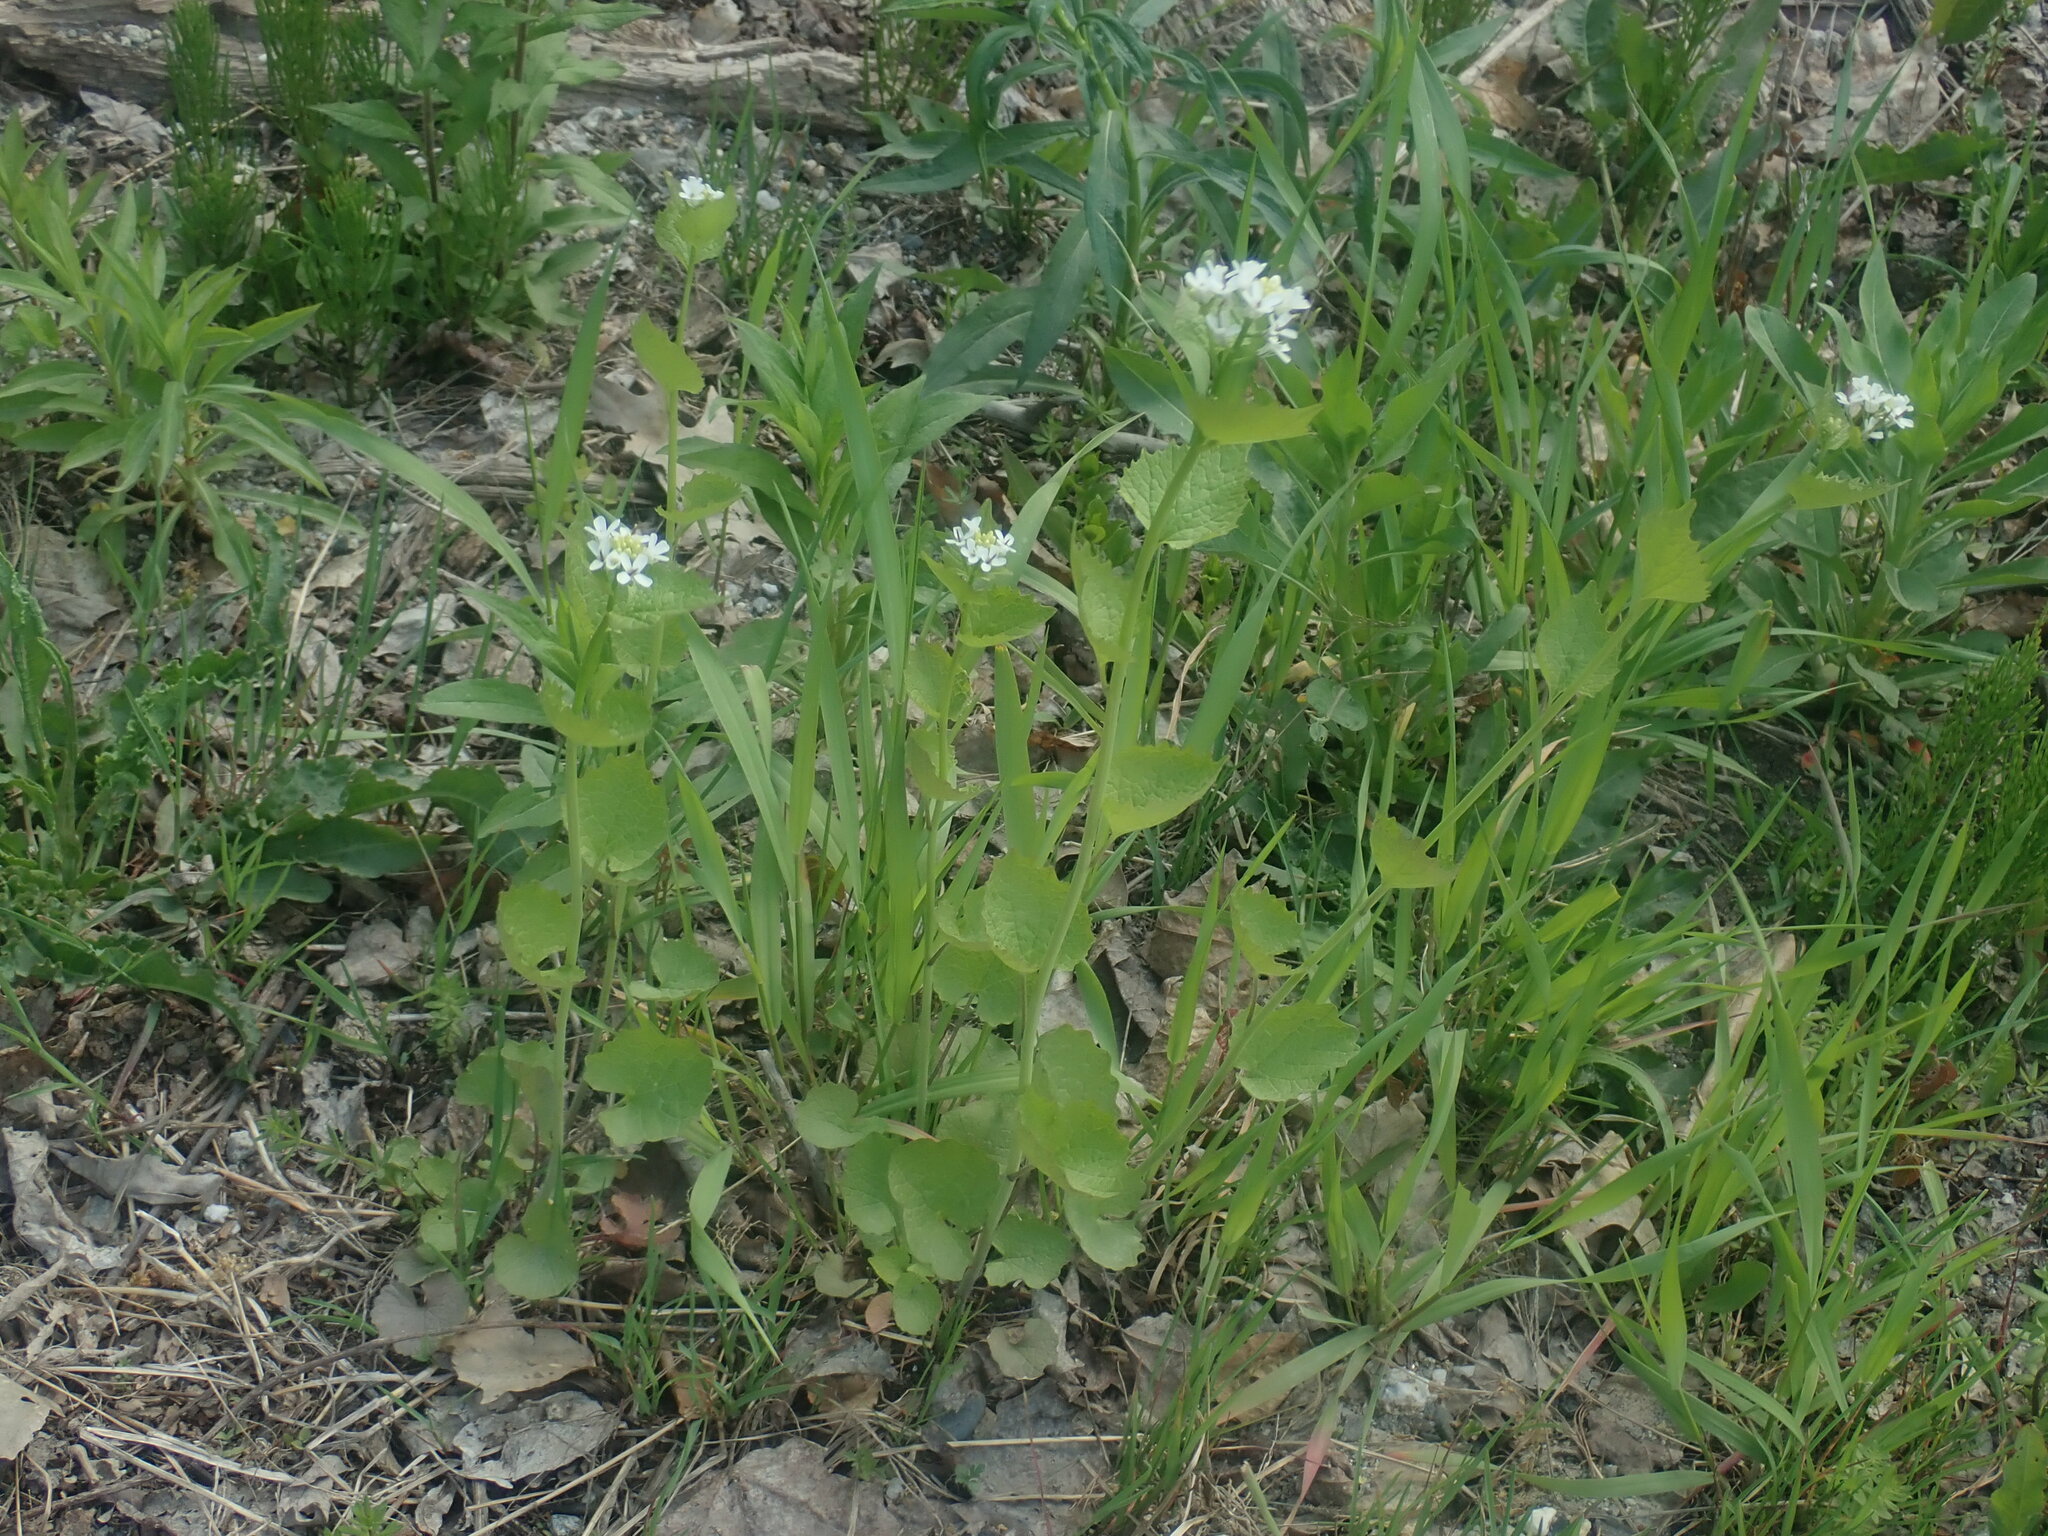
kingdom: Plantae
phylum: Tracheophyta
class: Magnoliopsida
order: Brassicales
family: Brassicaceae
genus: Alliaria
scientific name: Alliaria petiolata
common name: Garlic mustard
